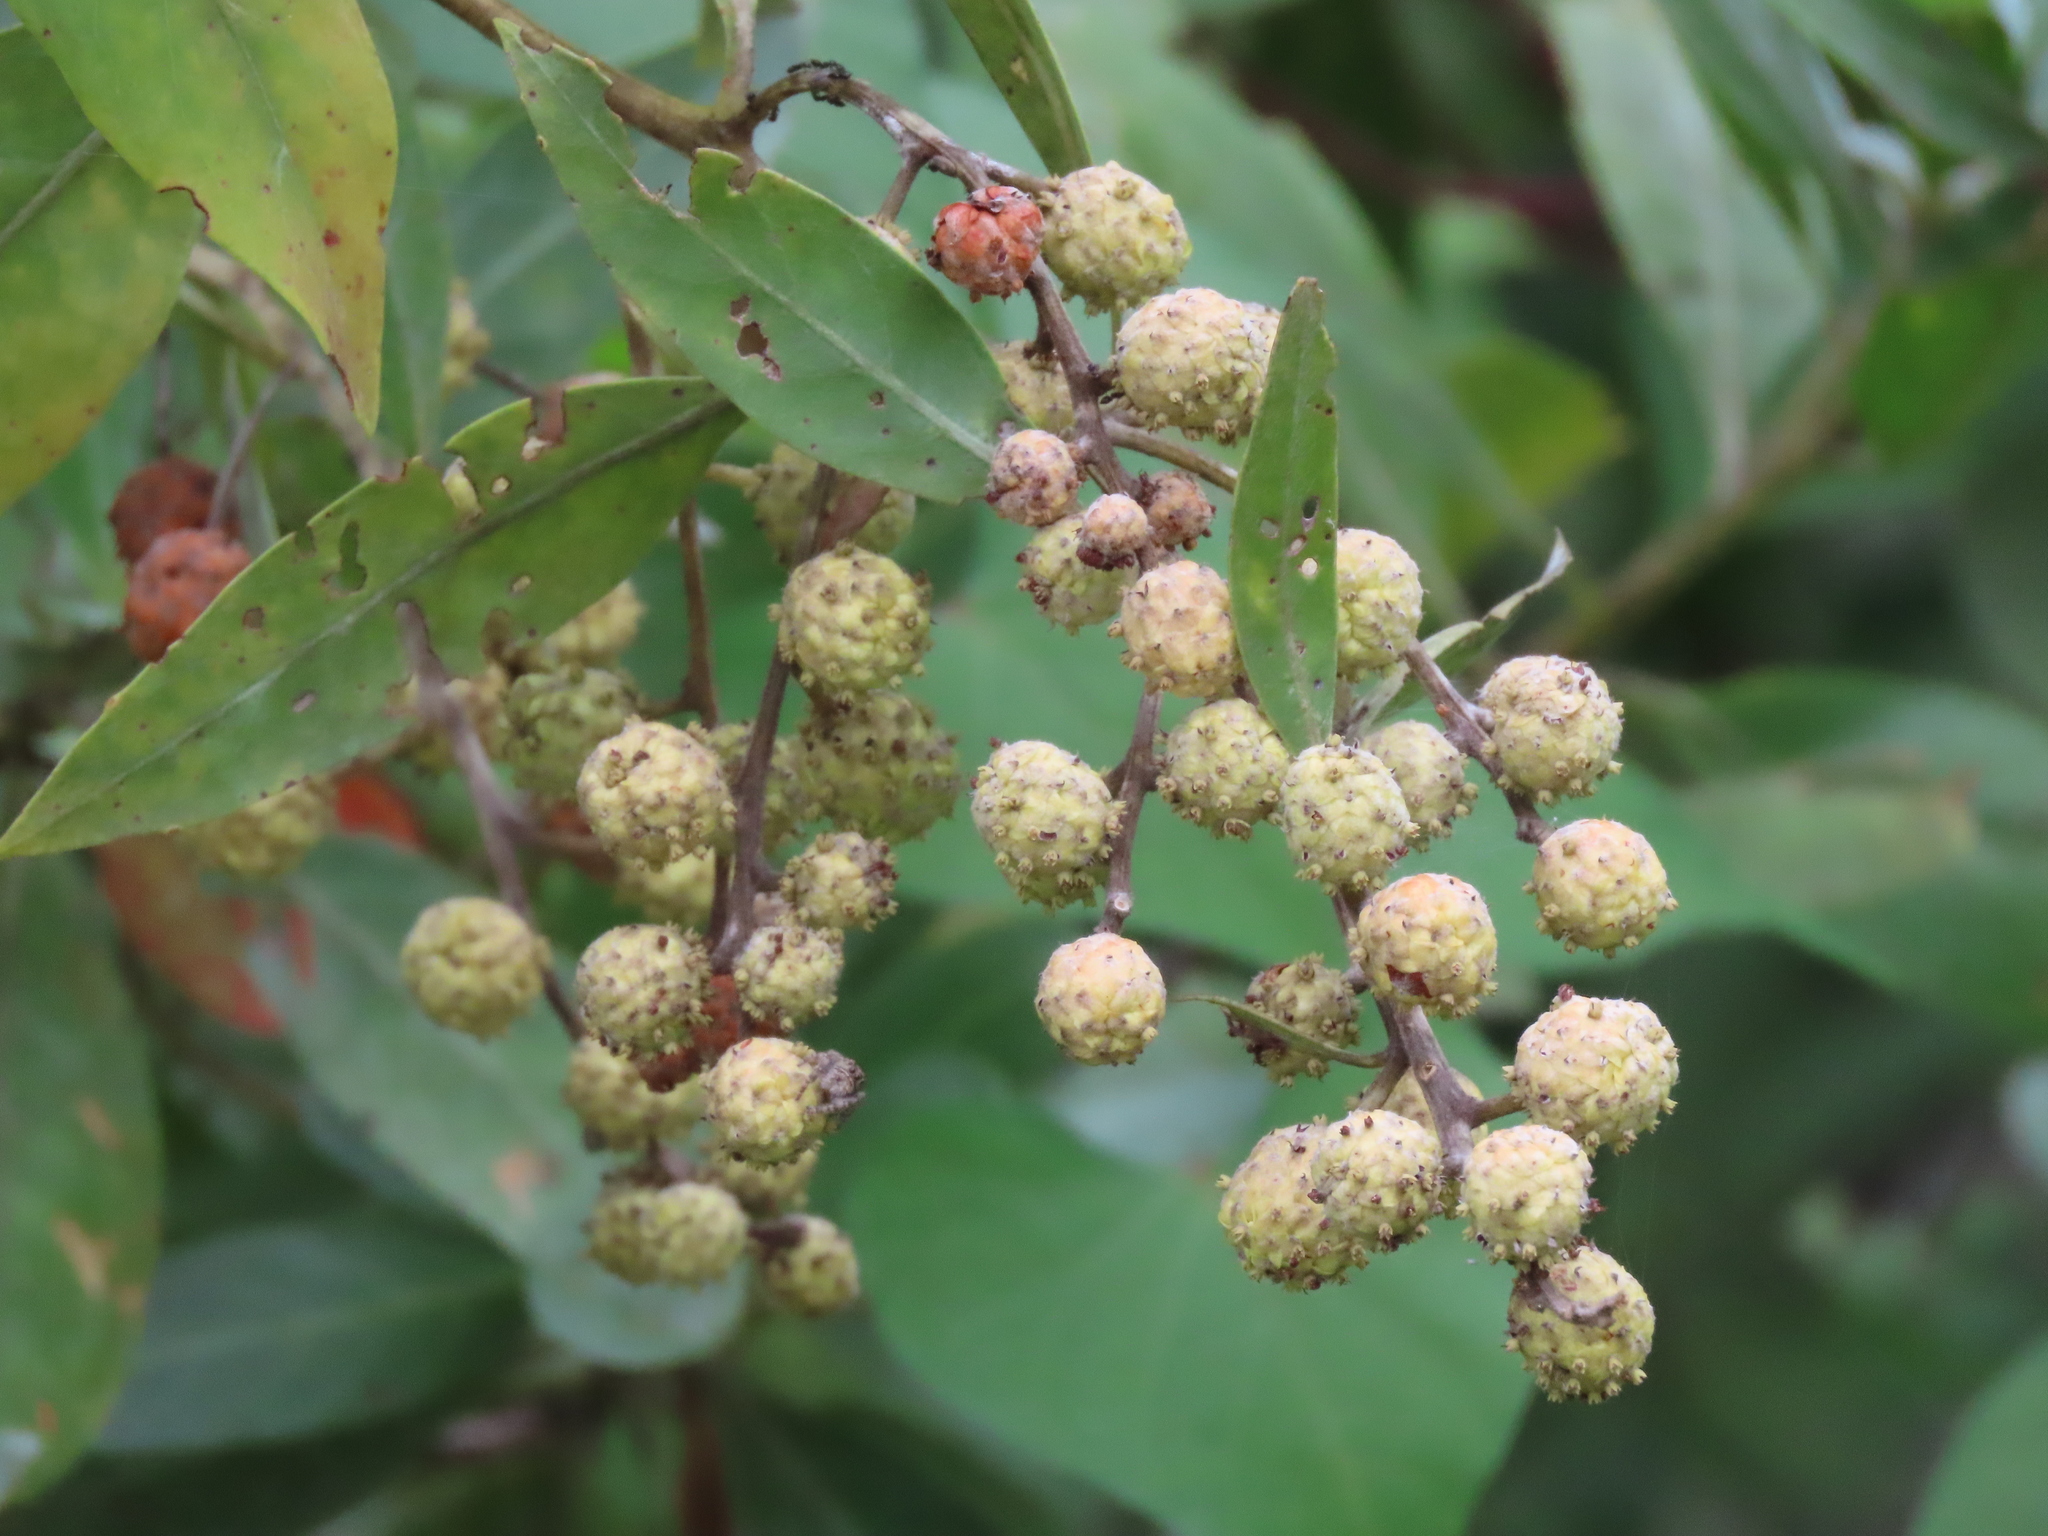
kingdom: Plantae
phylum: Tracheophyta
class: Magnoliopsida
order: Myrtales
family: Combretaceae
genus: Conocarpus
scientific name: Conocarpus erectus
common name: Button mangrove
